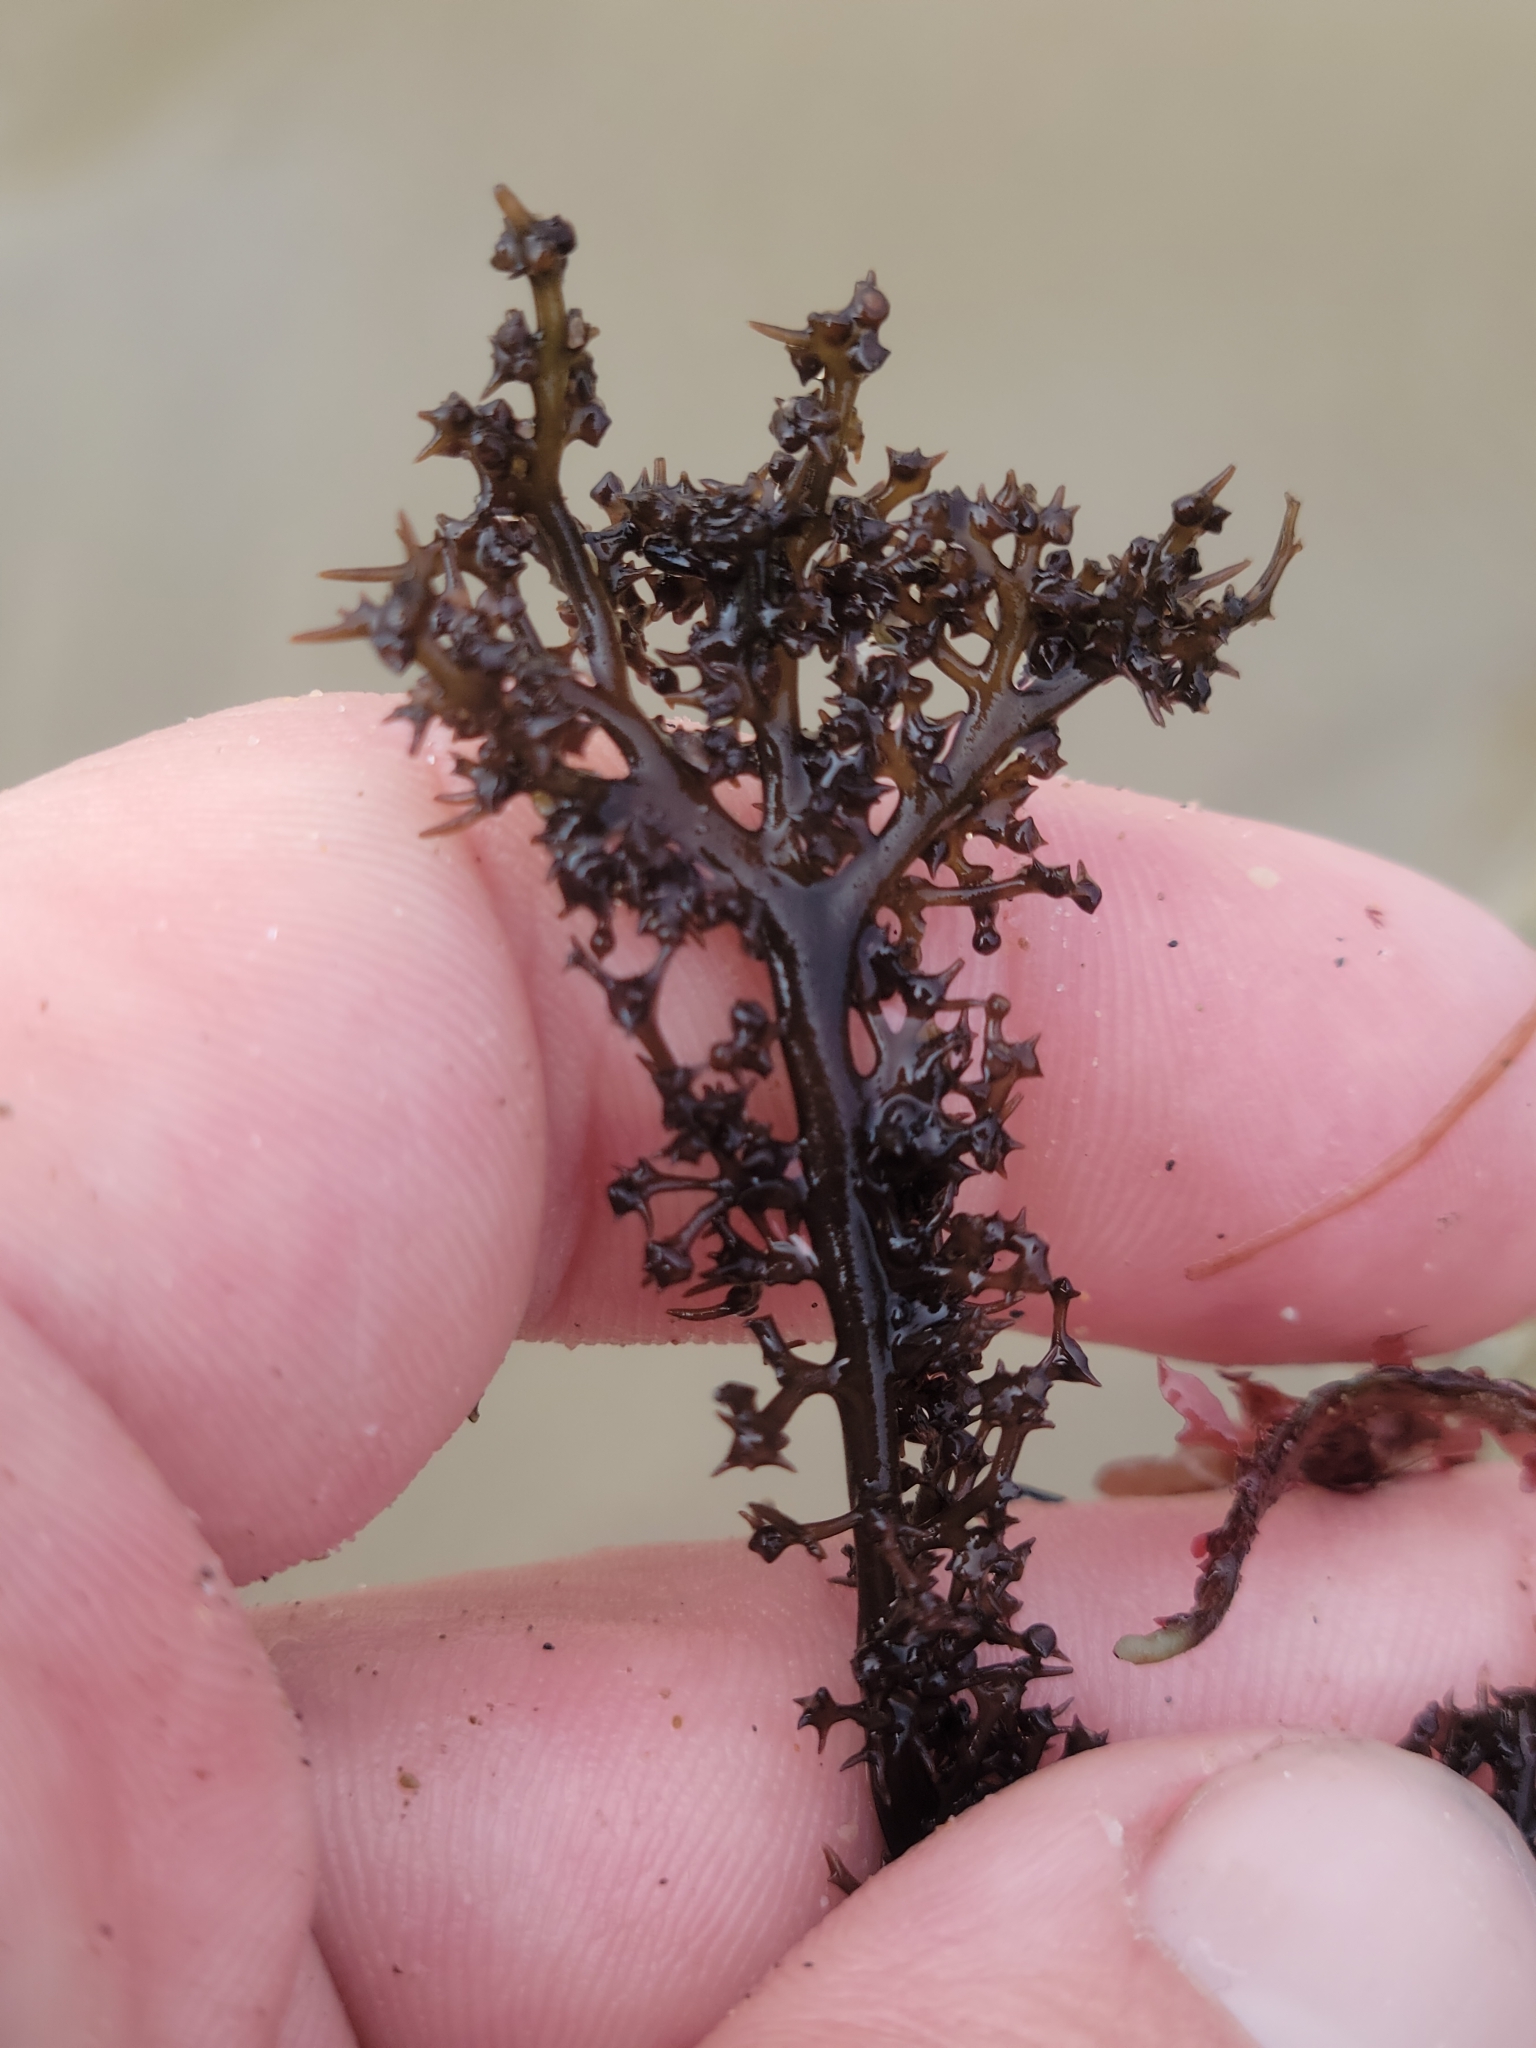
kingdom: Plantae
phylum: Rhodophyta
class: Florideophyceae
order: Gigartinales
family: Gigartinaceae
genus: Chondracanthus
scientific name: Chondracanthus canaliculatus
